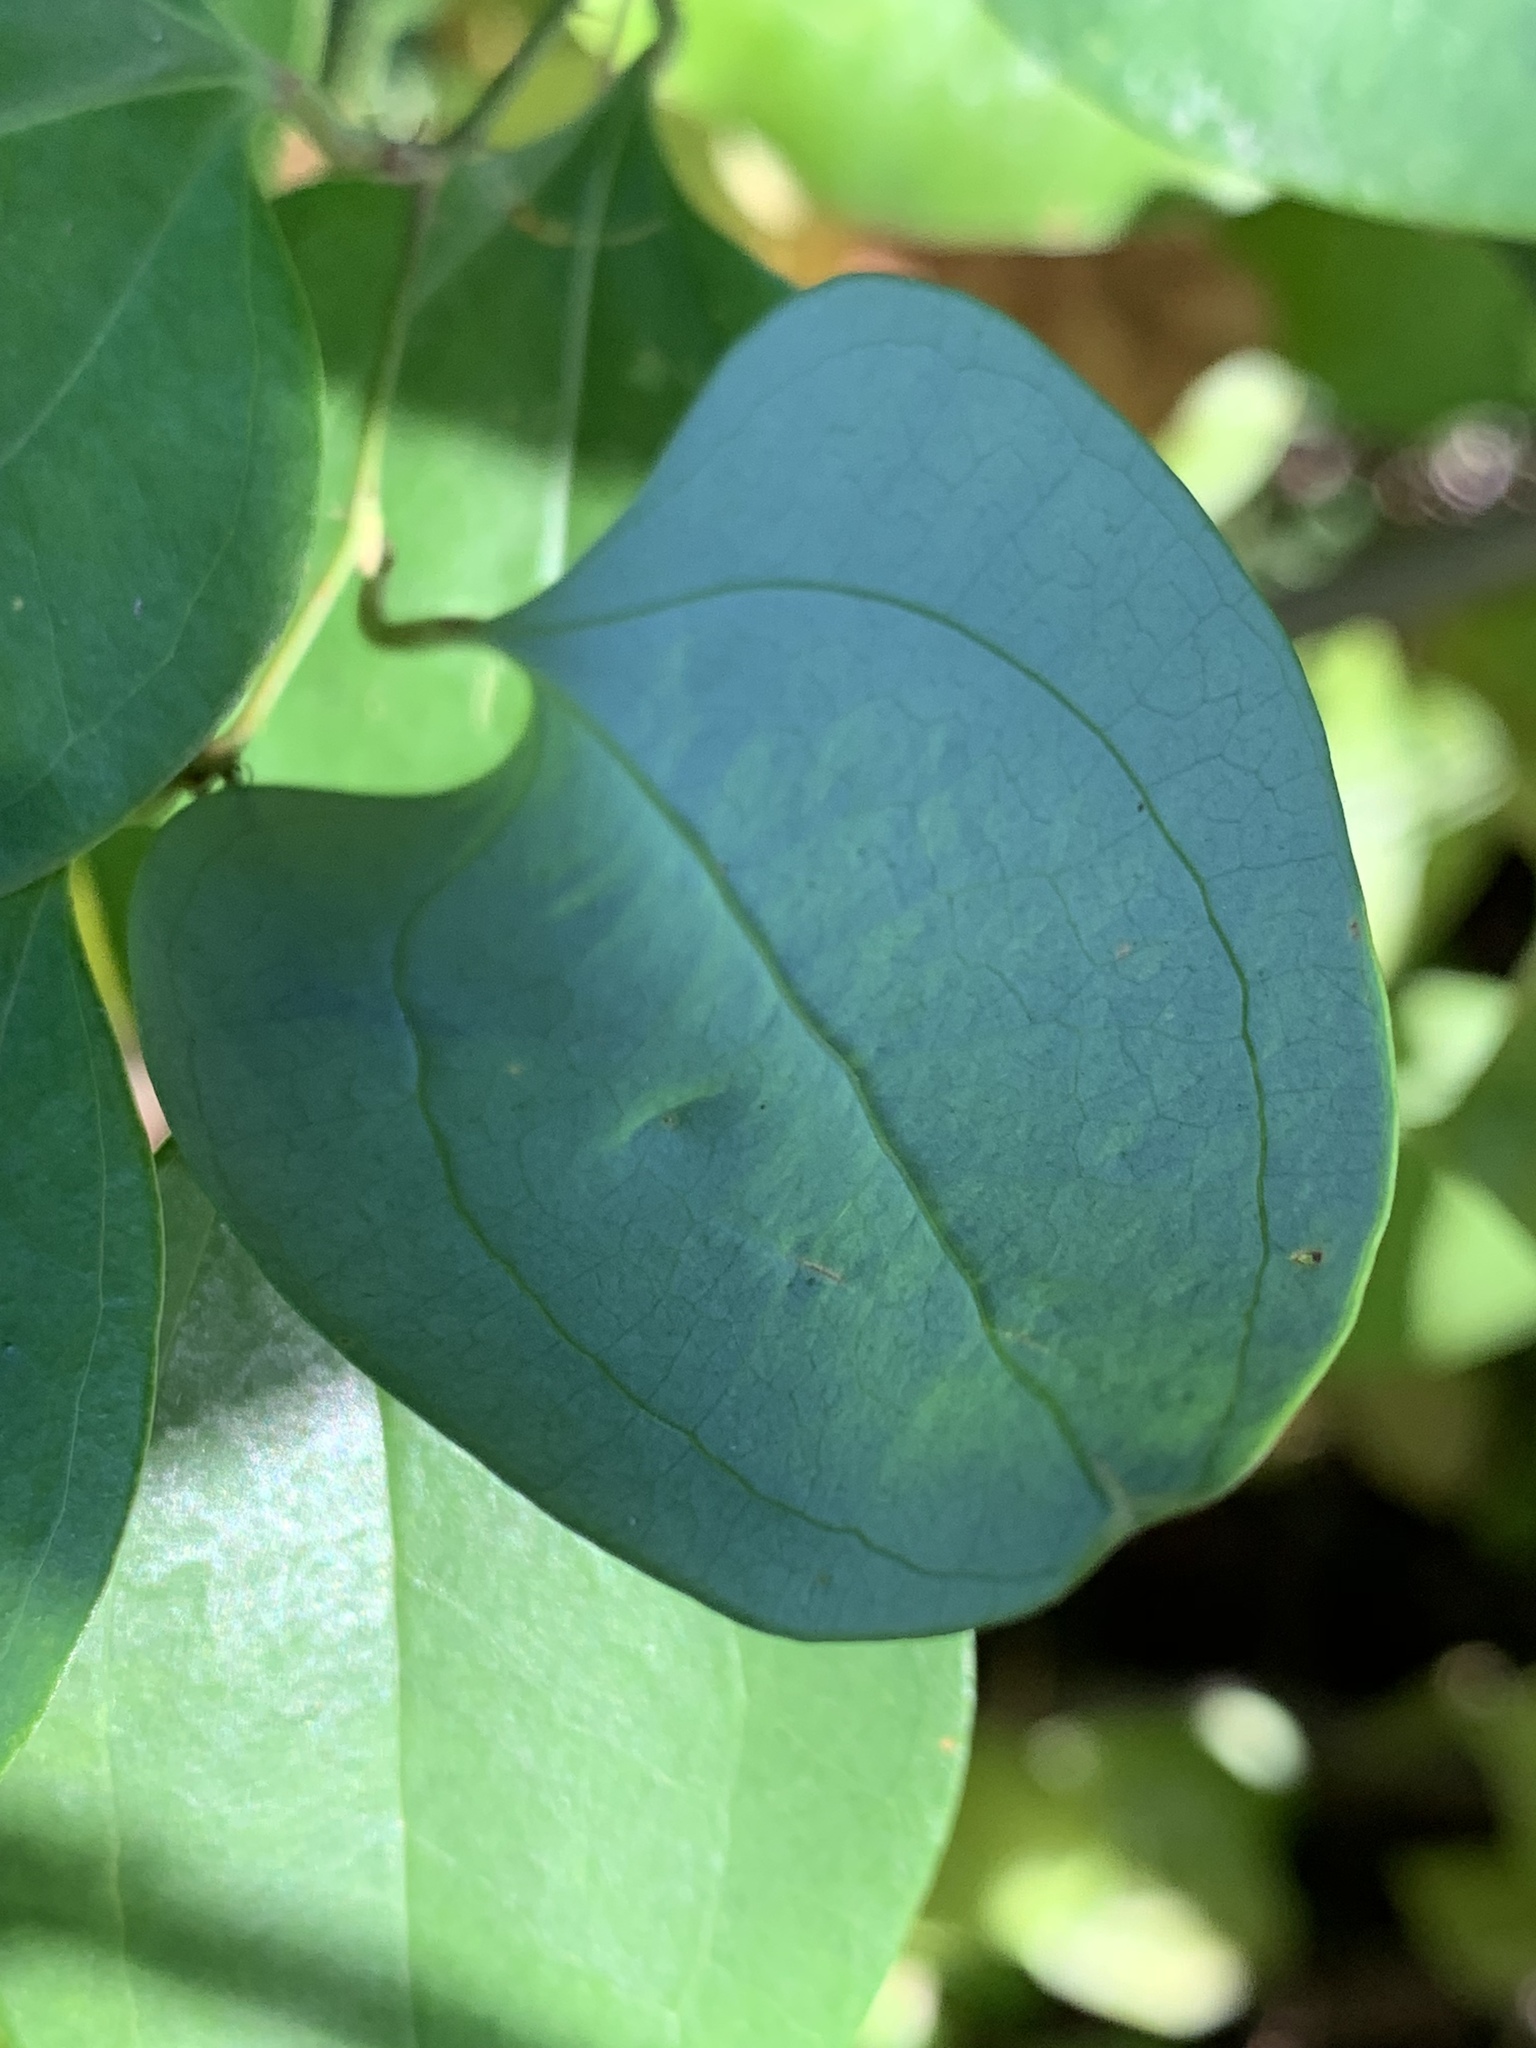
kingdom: Plantae
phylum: Tracheophyta
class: Liliopsida
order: Liliales
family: Smilacaceae
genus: Smilax
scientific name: Smilax glauca
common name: Cat greenbrier
